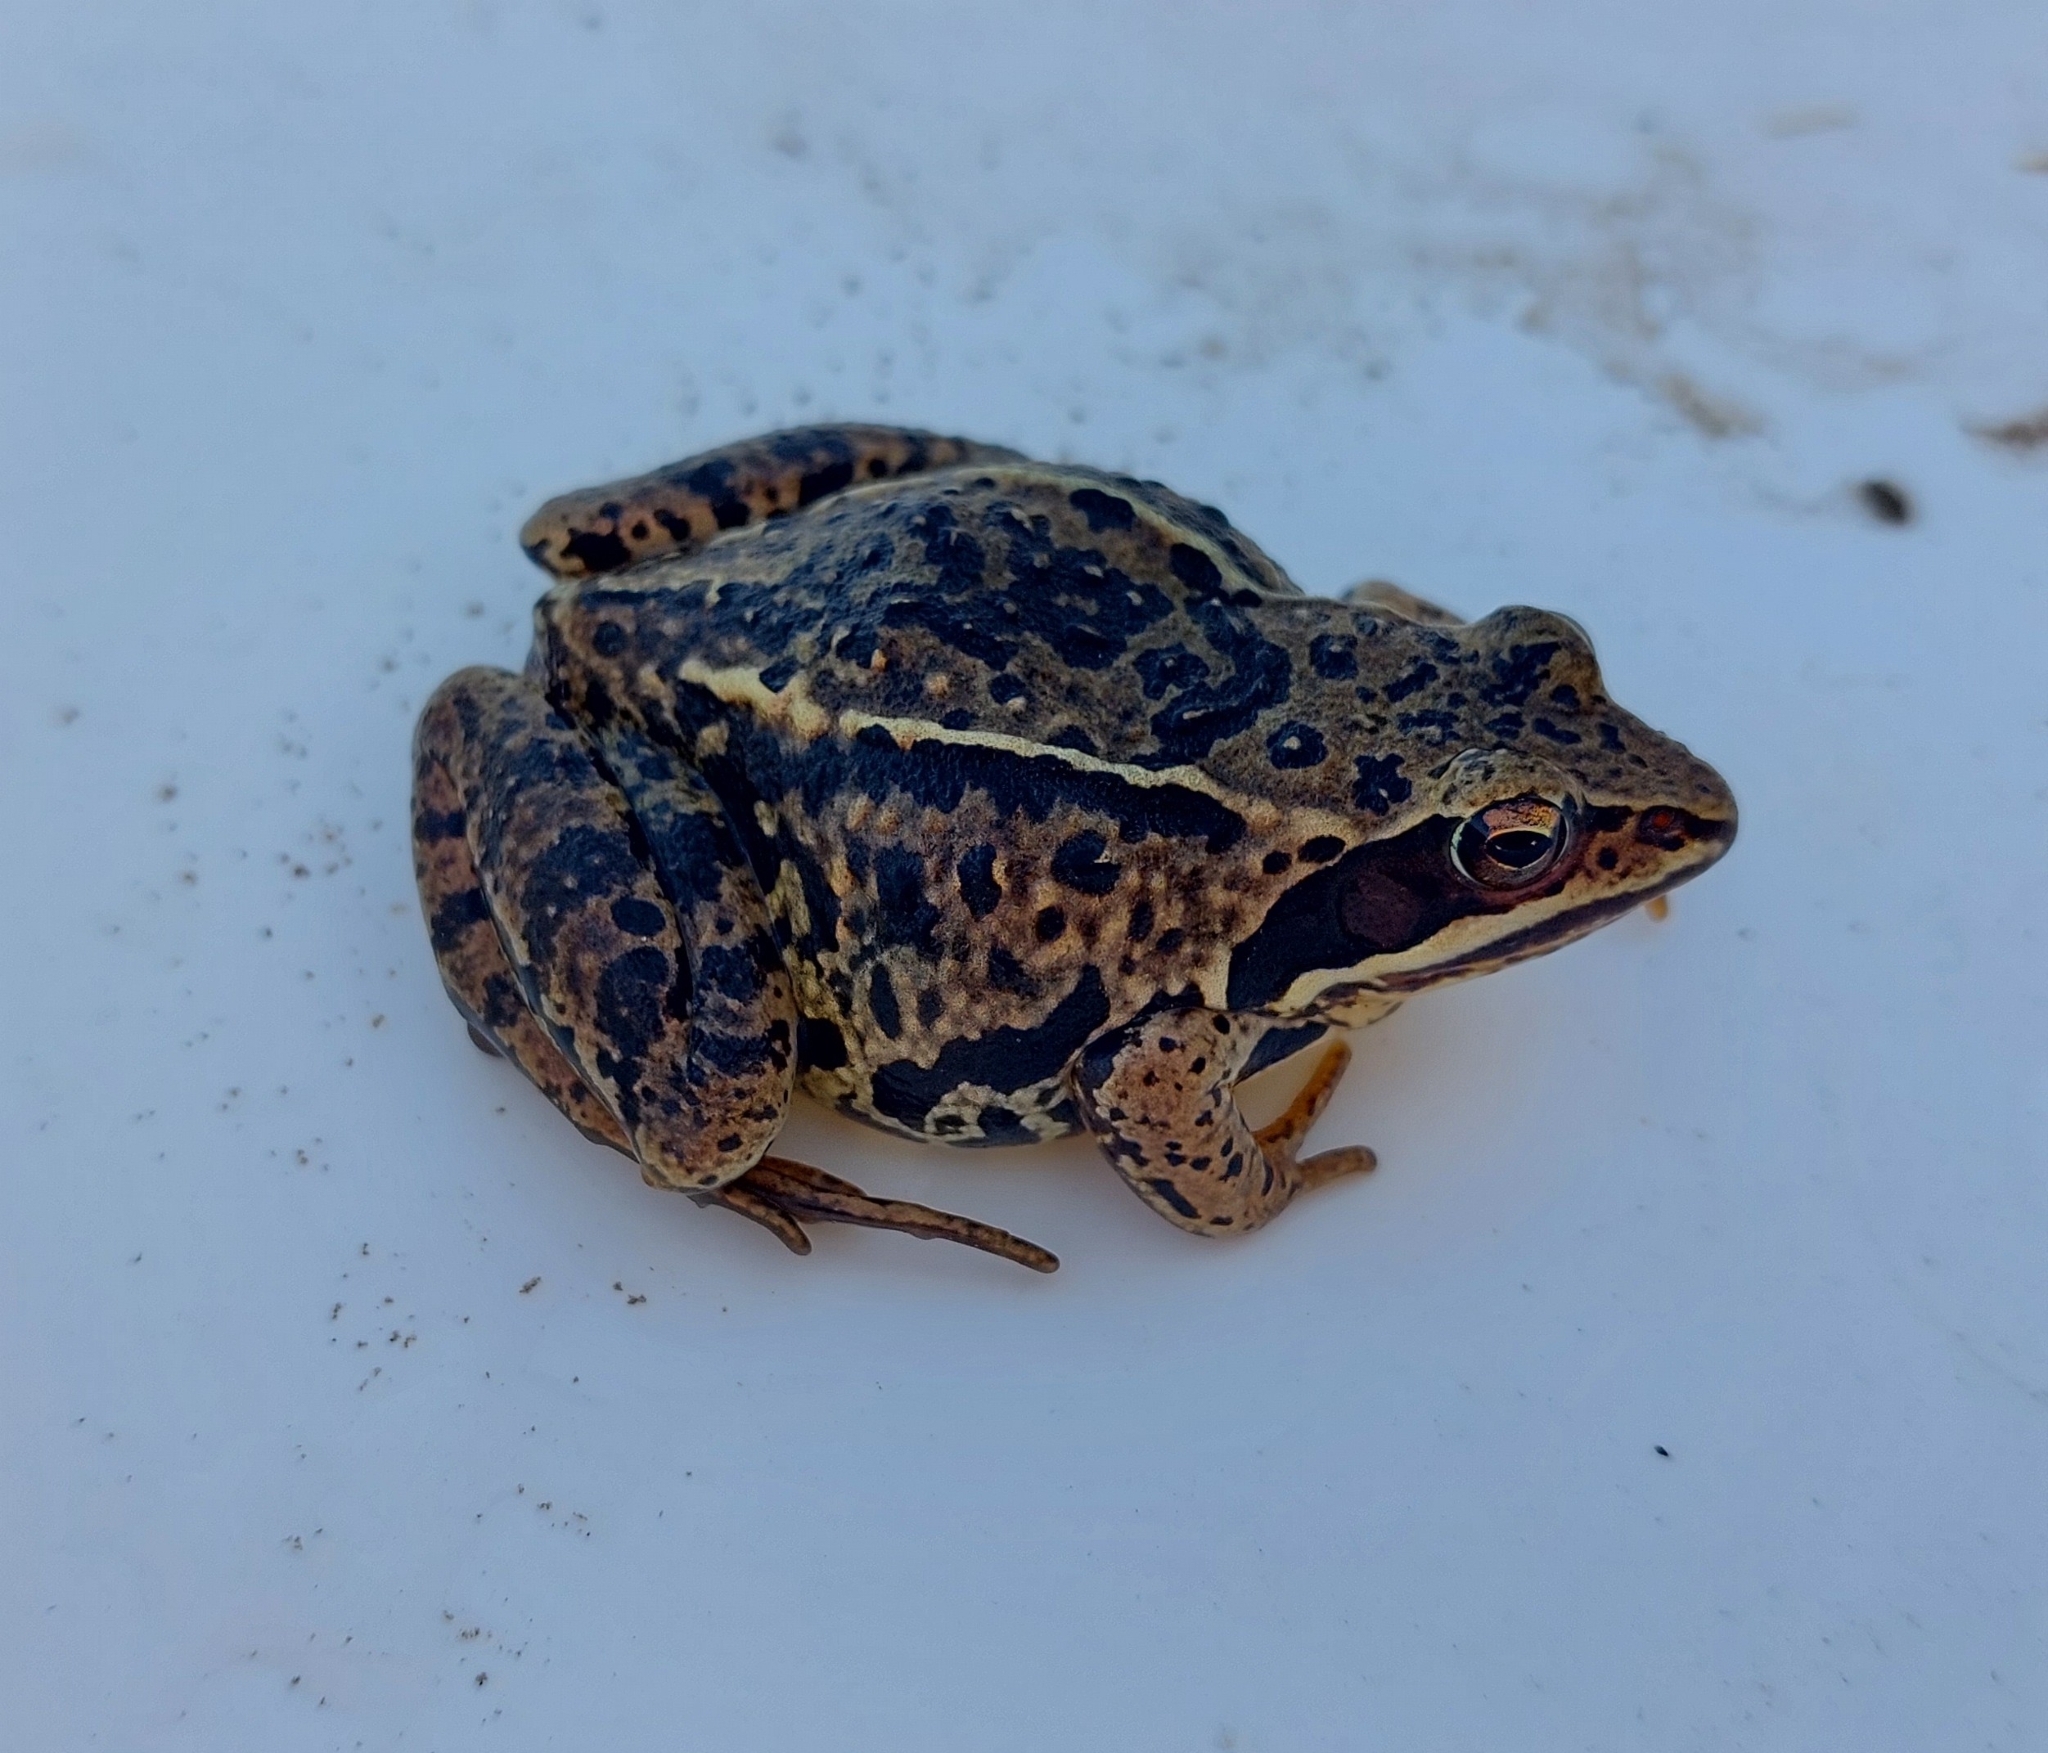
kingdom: Animalia
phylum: Chordata
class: Amphibia
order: Anura
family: Ranidae
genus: Rana
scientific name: Rana arvalis
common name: Moor frog
